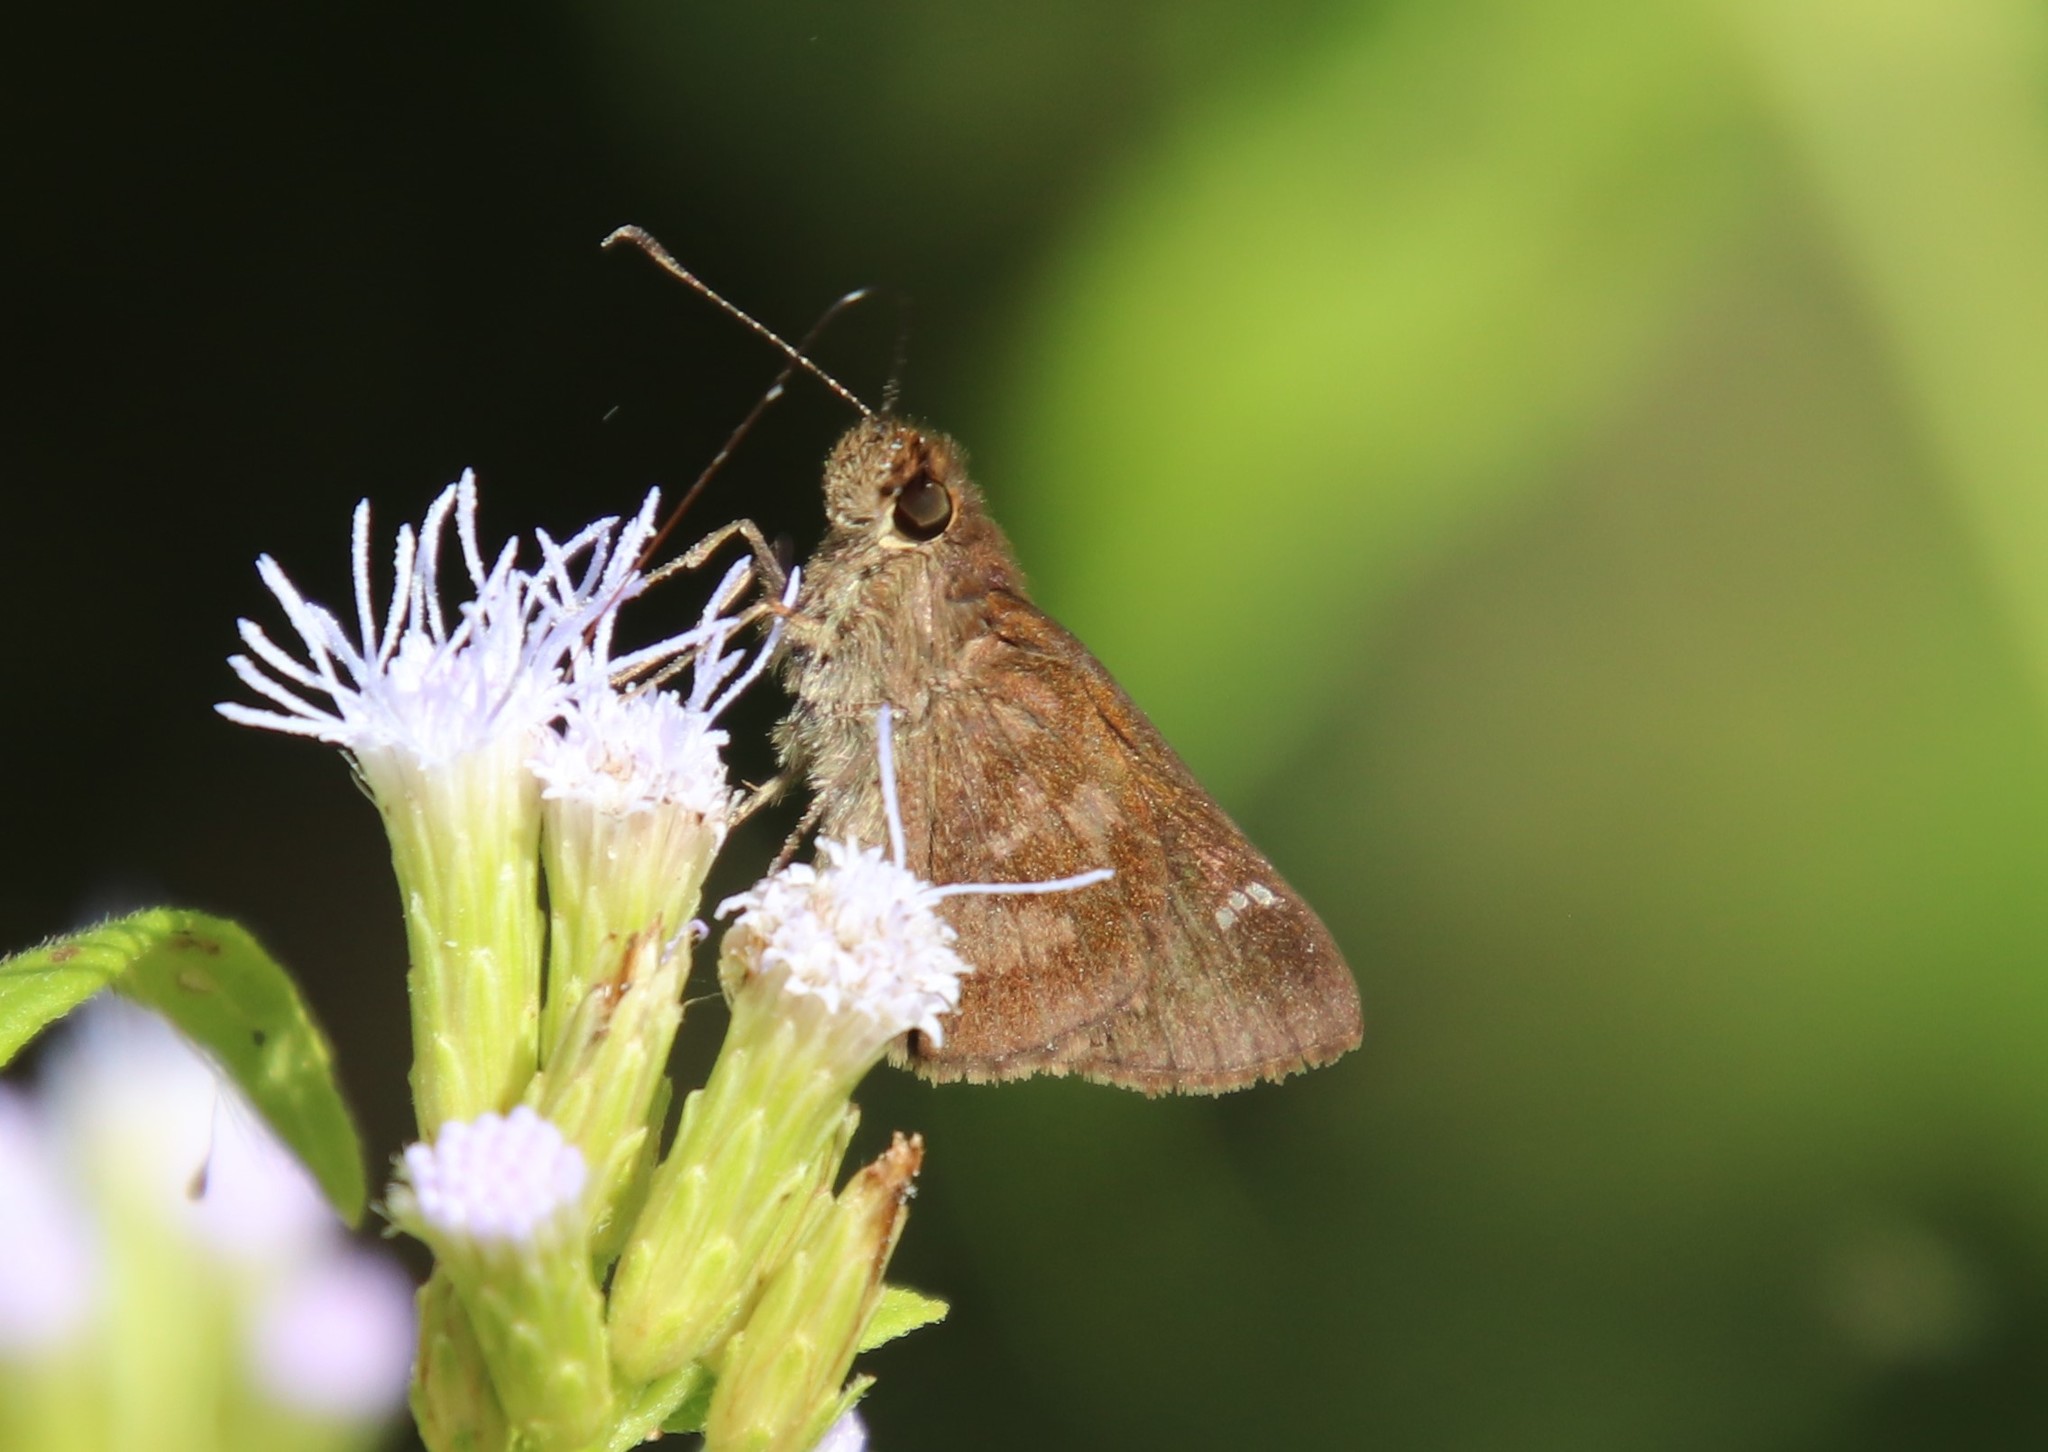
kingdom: Animalia
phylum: Arthropoda
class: Insecta
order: Lepidoptera
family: Hesperiidae
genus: Cymaenes
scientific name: Cymaenes
